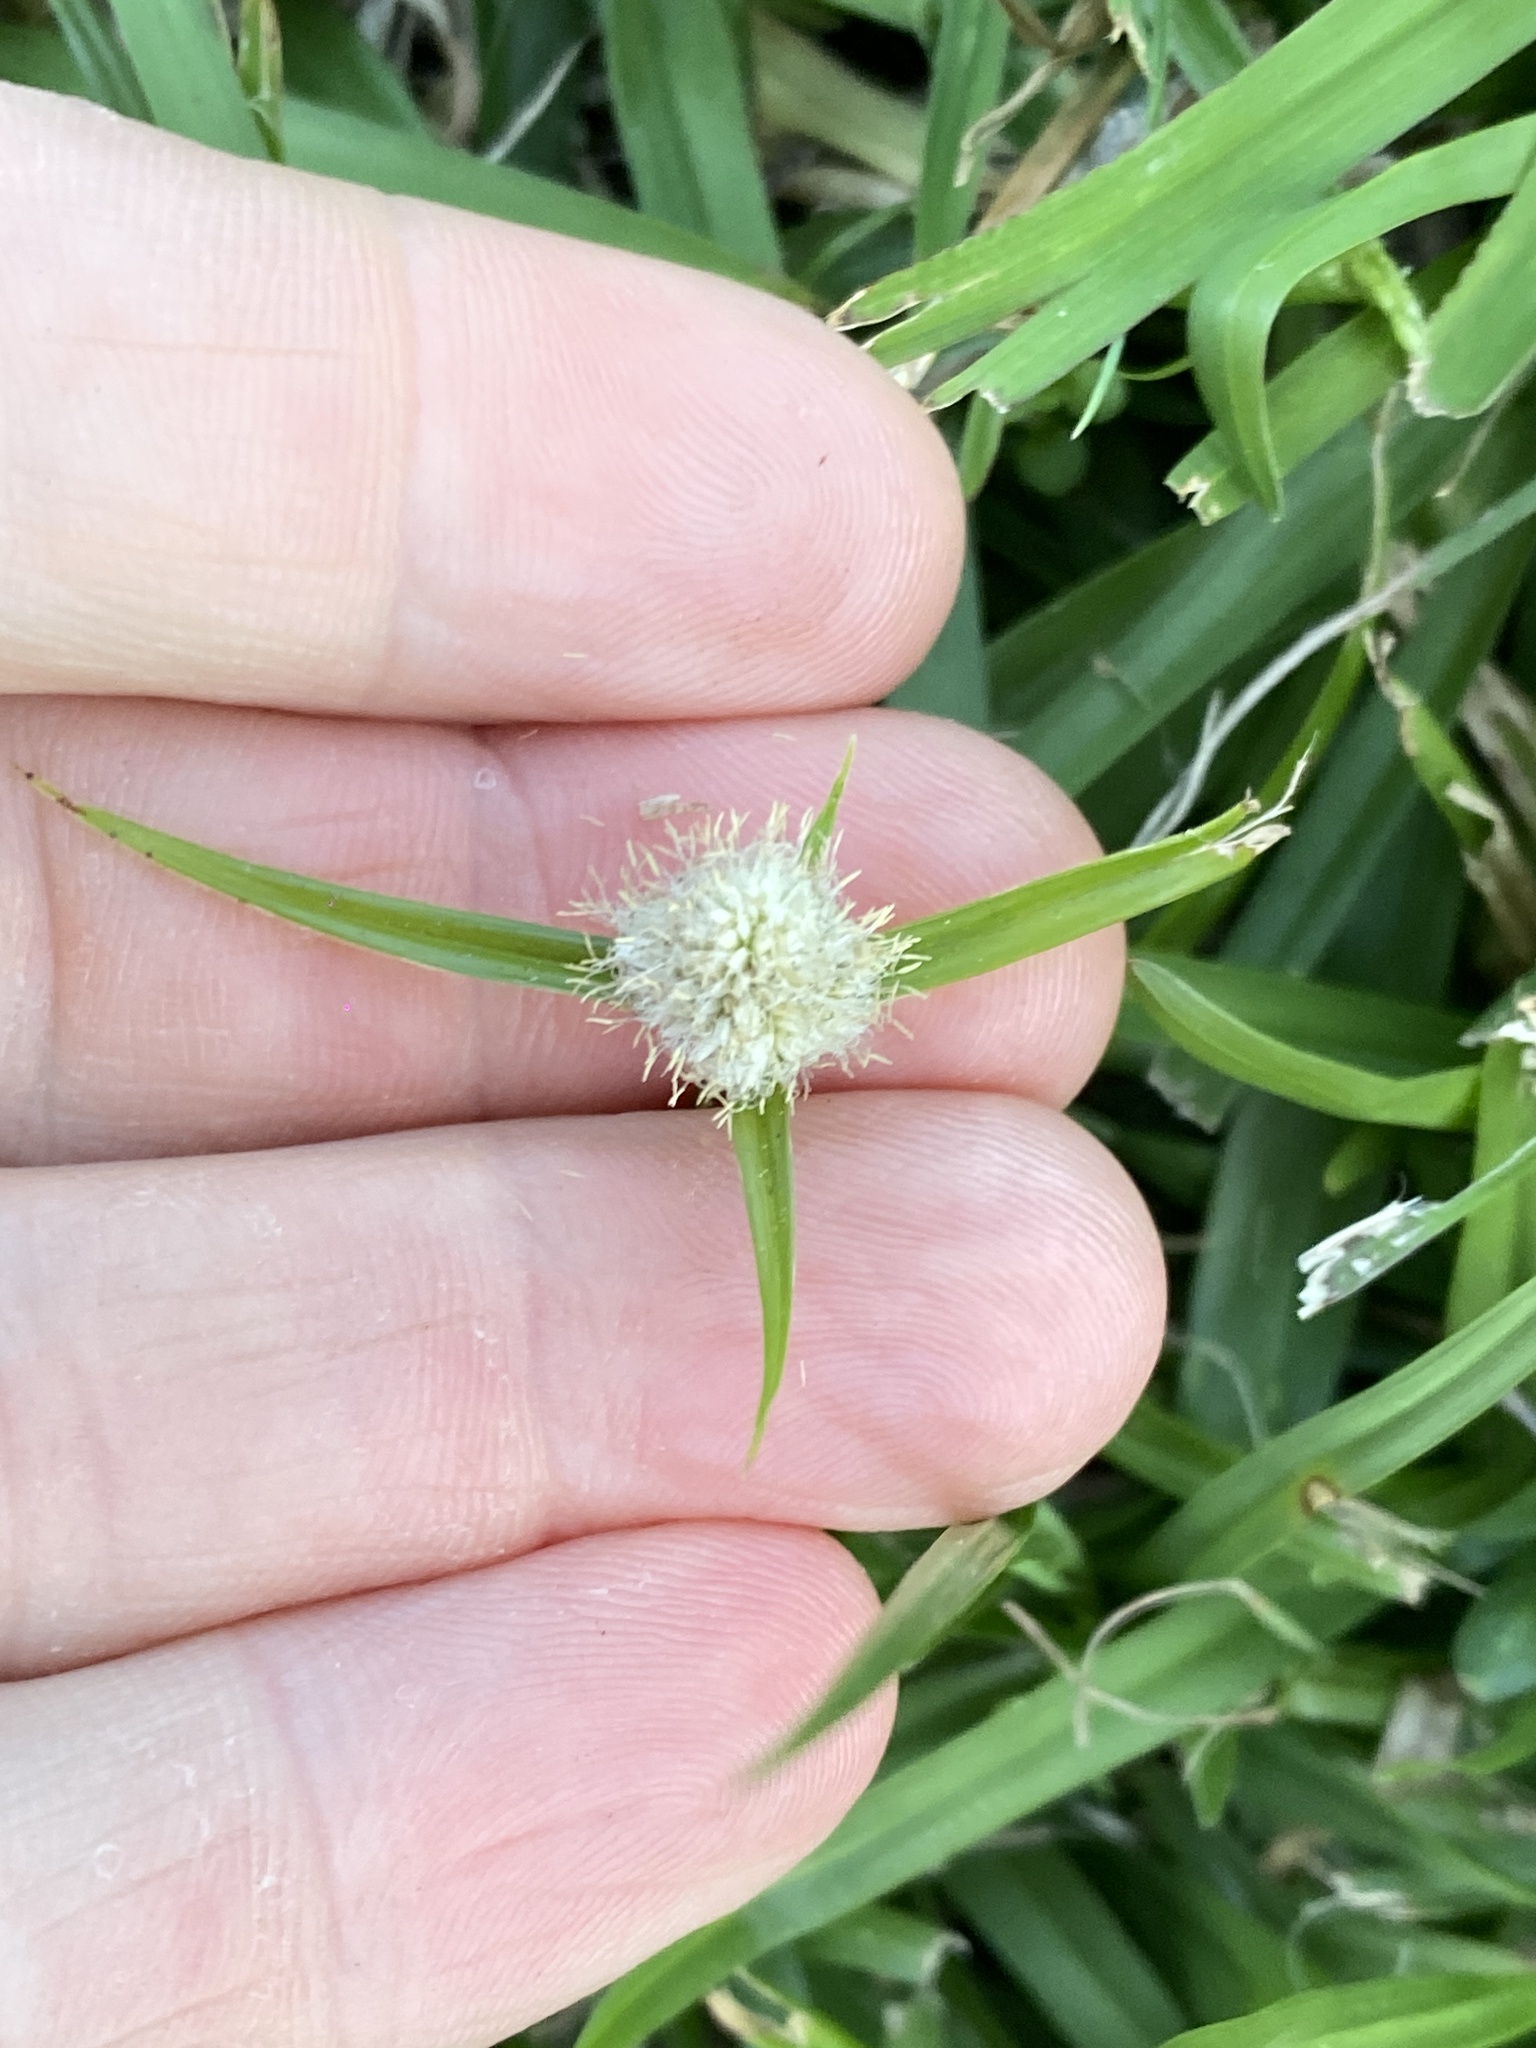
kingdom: Plantae
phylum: Tracheophyta
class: Liliopsida
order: Poales
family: Cyperaceae
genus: Cyperus
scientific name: Cyperus sesquiflorus
